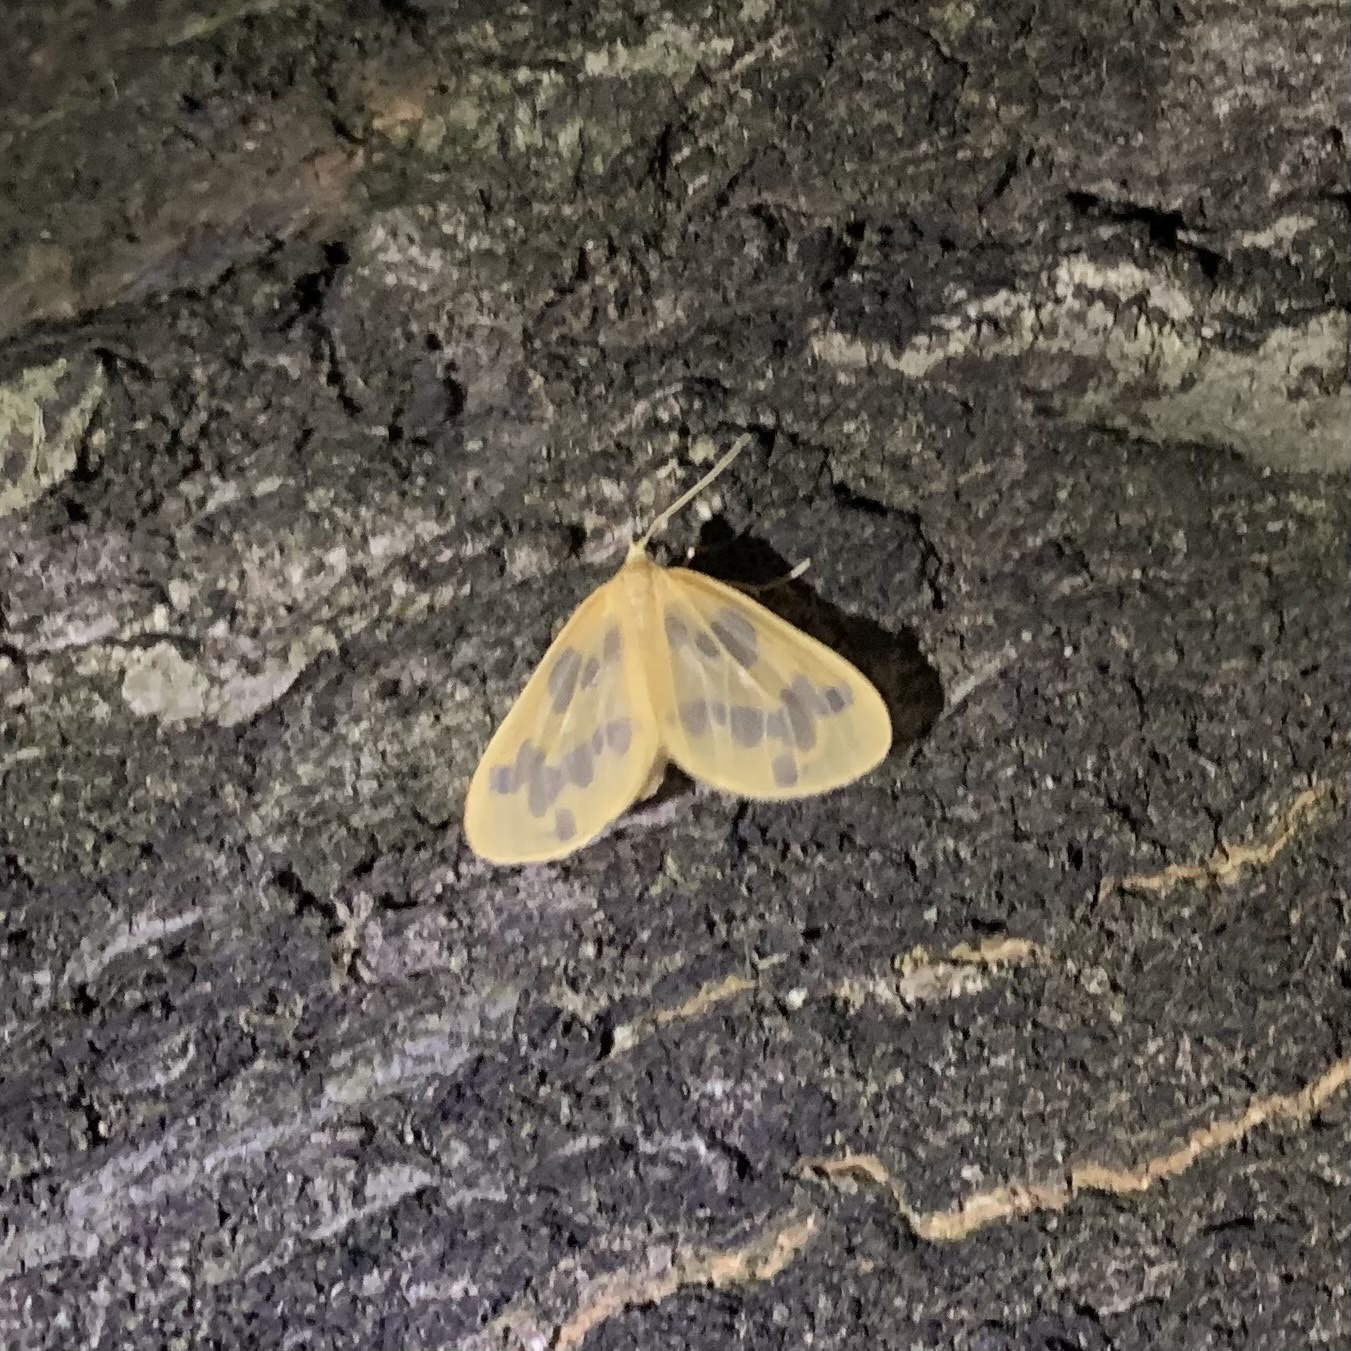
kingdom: Animalia
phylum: Arthropoda
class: Insecta
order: Lepidoptera
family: Geometridae
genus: Eubaphe
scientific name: Eubaphe mendica
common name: Beggar
